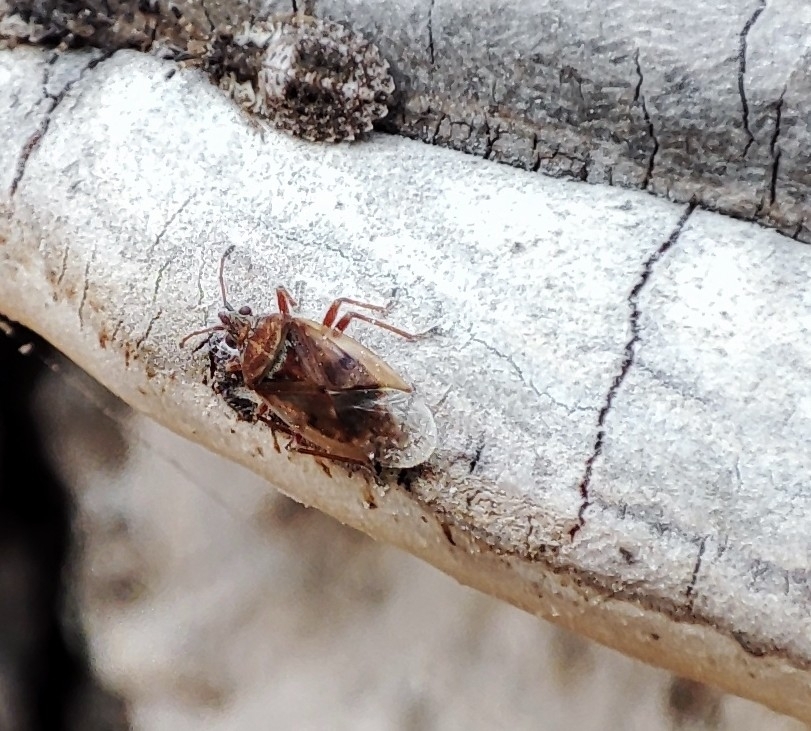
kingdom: Animalia
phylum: Arthropoda
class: Insecta
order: Hemiptera
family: Lygaeidae
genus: Kleidocerys
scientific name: Kleidocerys resedae
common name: Birch catkin bug
